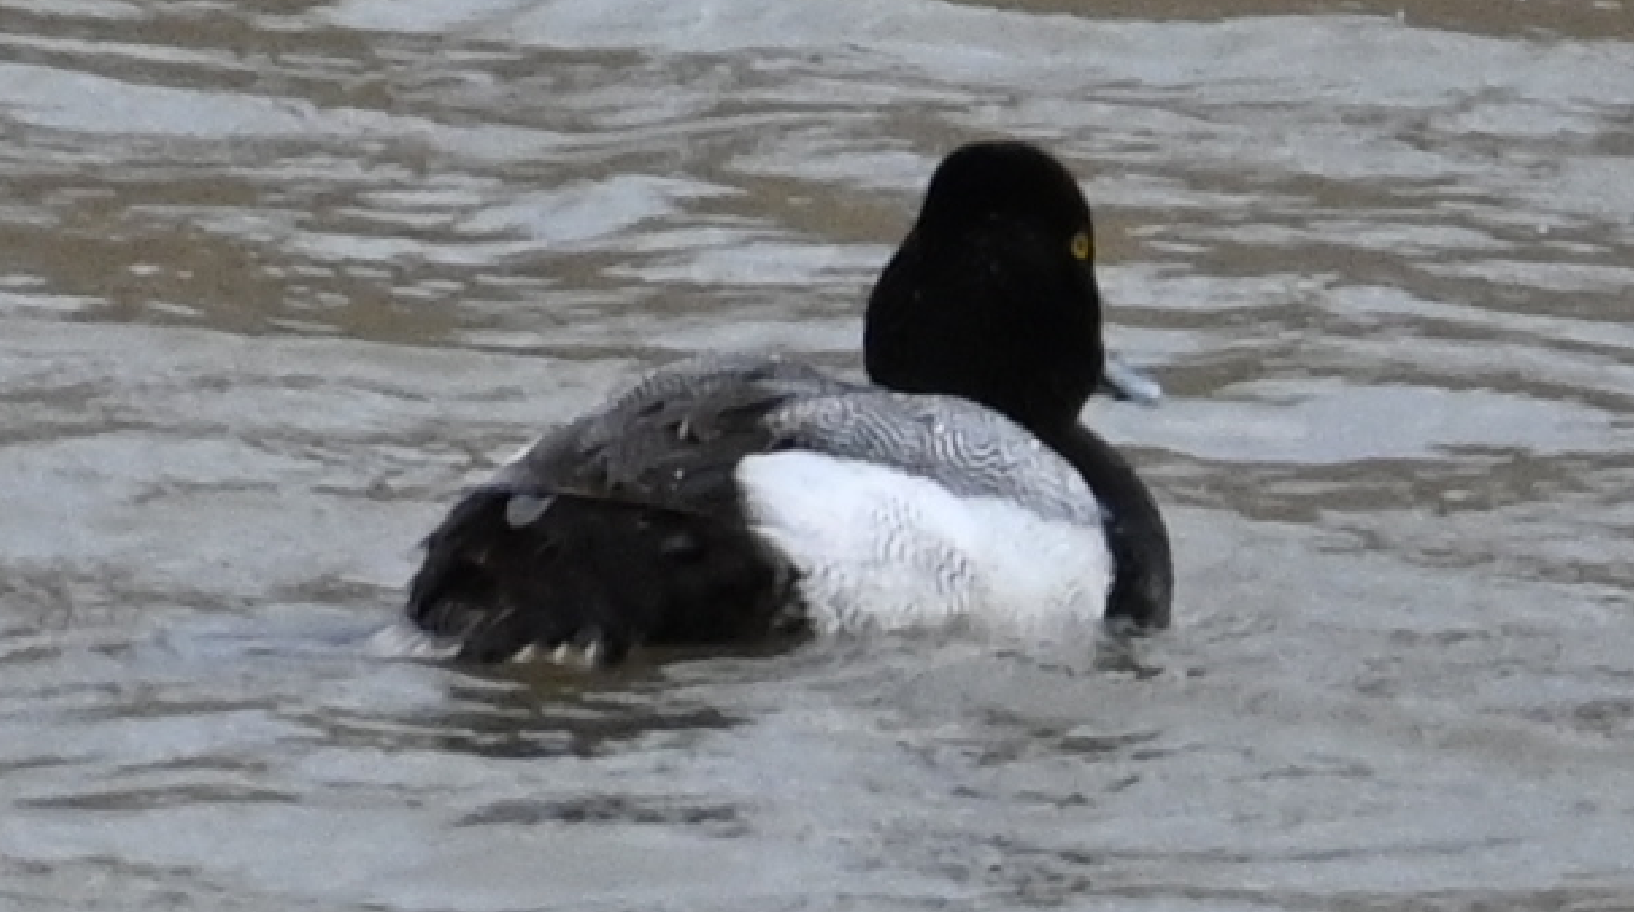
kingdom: Animalia
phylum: Chordata
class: Aves
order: Anseriformes
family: Anatidae
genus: Aythya
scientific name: Aythya affinis
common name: Lesser scaup
